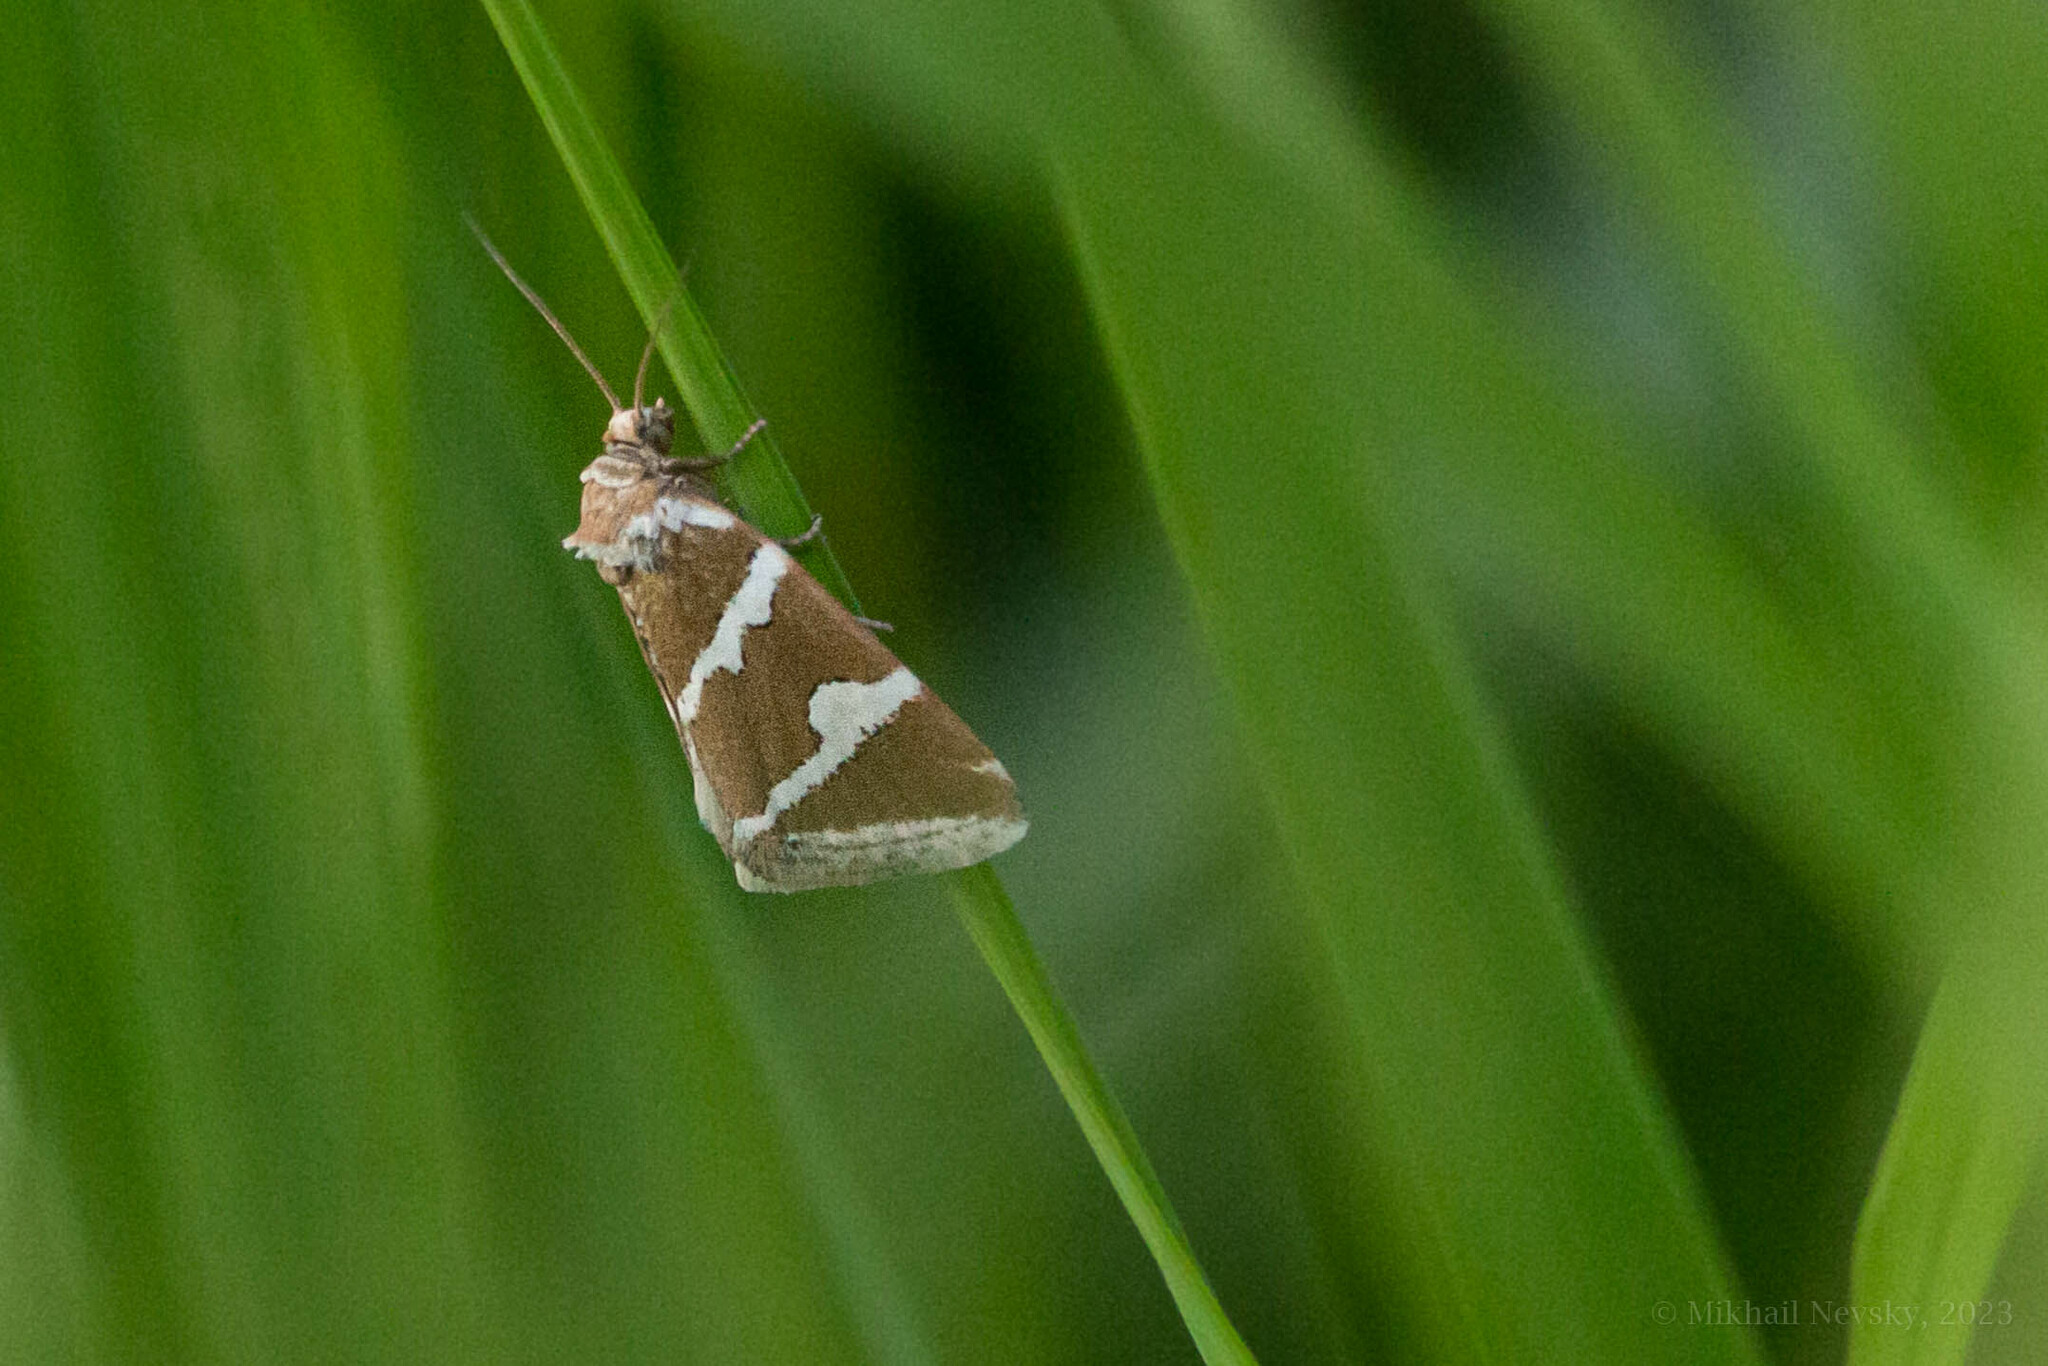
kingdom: Animalia
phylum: Arthropoda
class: Insecta
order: Lepidoptera
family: Noctuidae
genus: Deltote
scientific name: Deltote bankiana
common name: Silver barred
